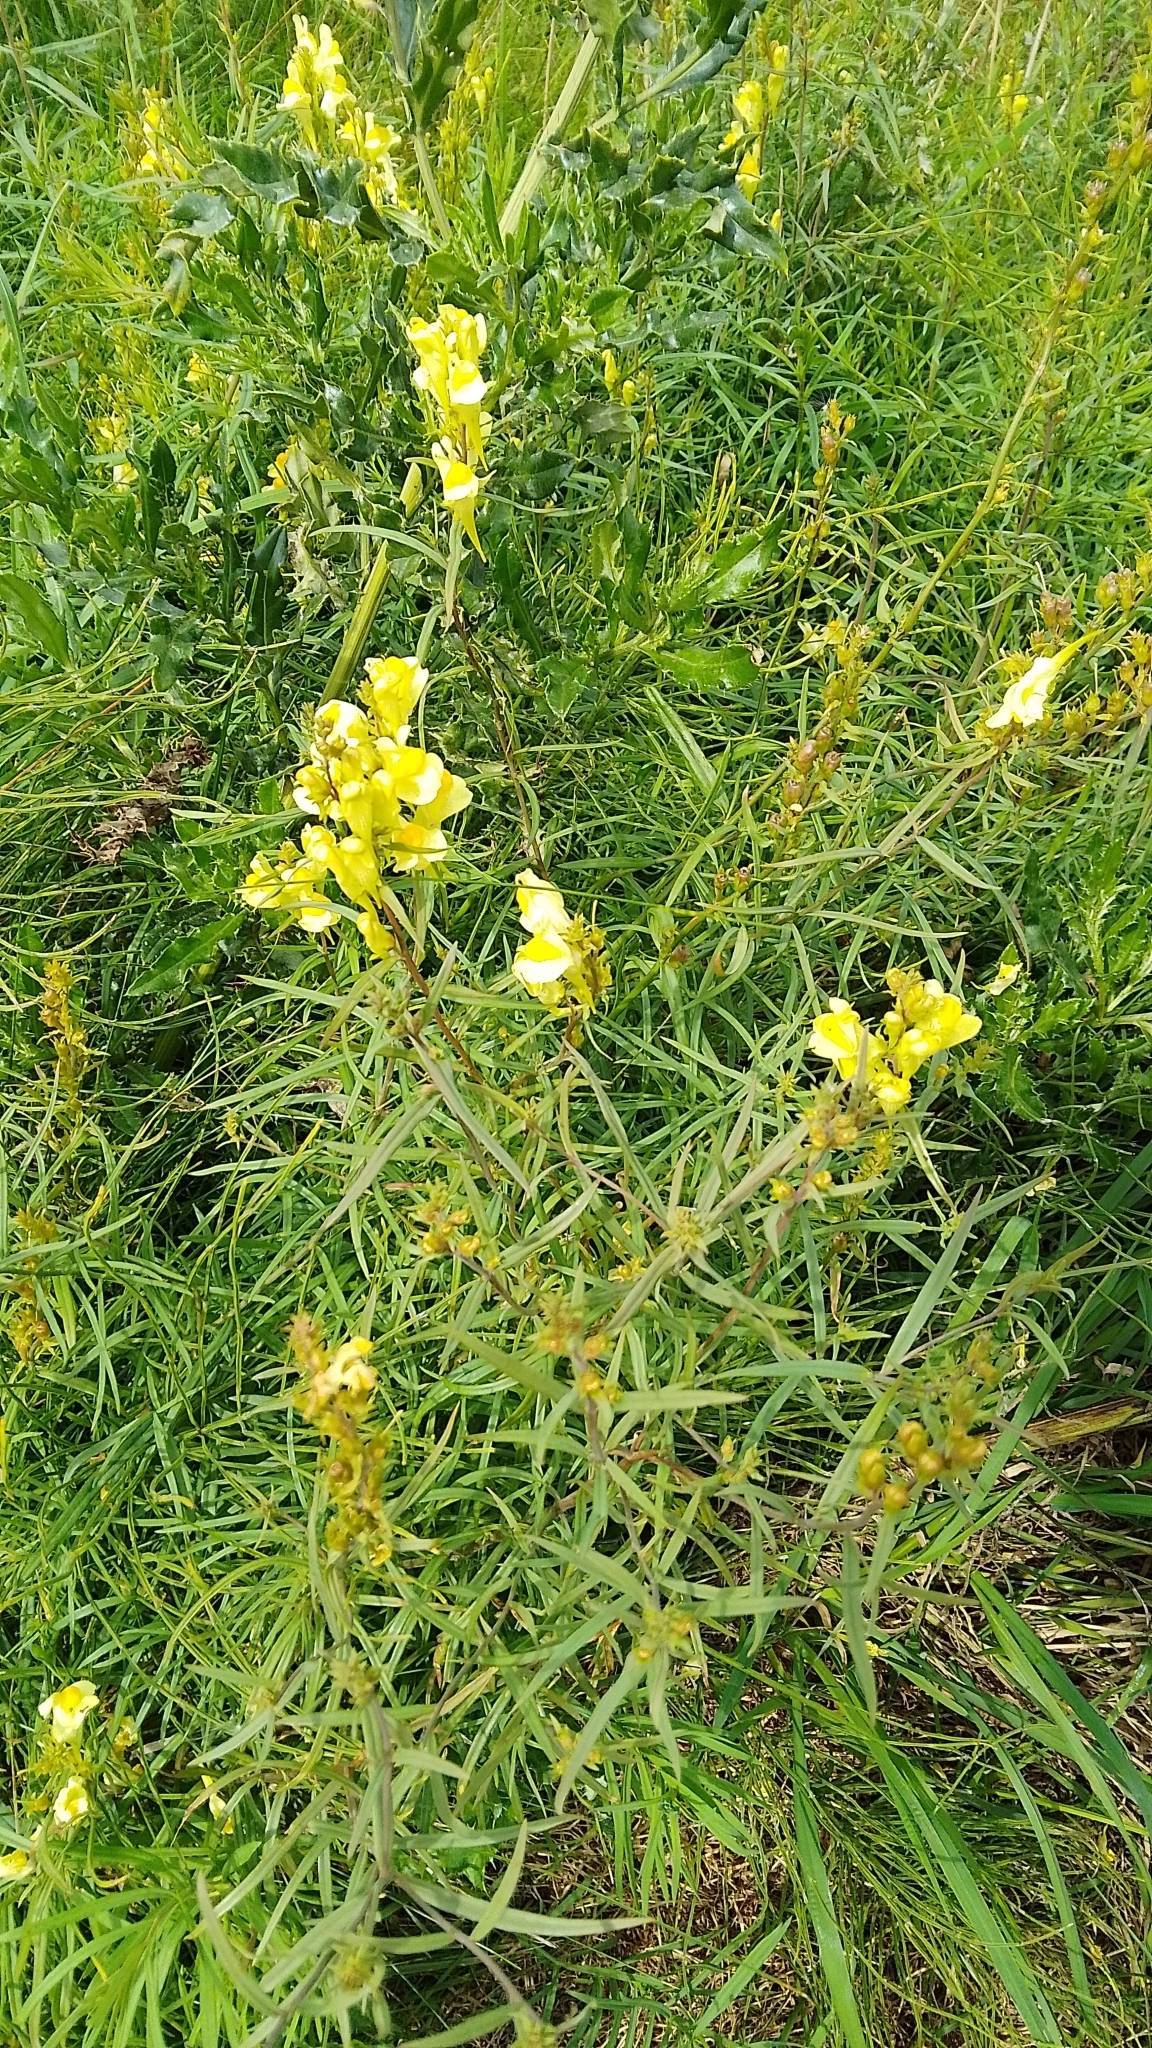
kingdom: Plantae
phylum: Tracheophyta
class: Magnoliopsida
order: Lamiales
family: Plantaginaceae
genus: Linaria
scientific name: Linaria vulgaris
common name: Butter and eggs
